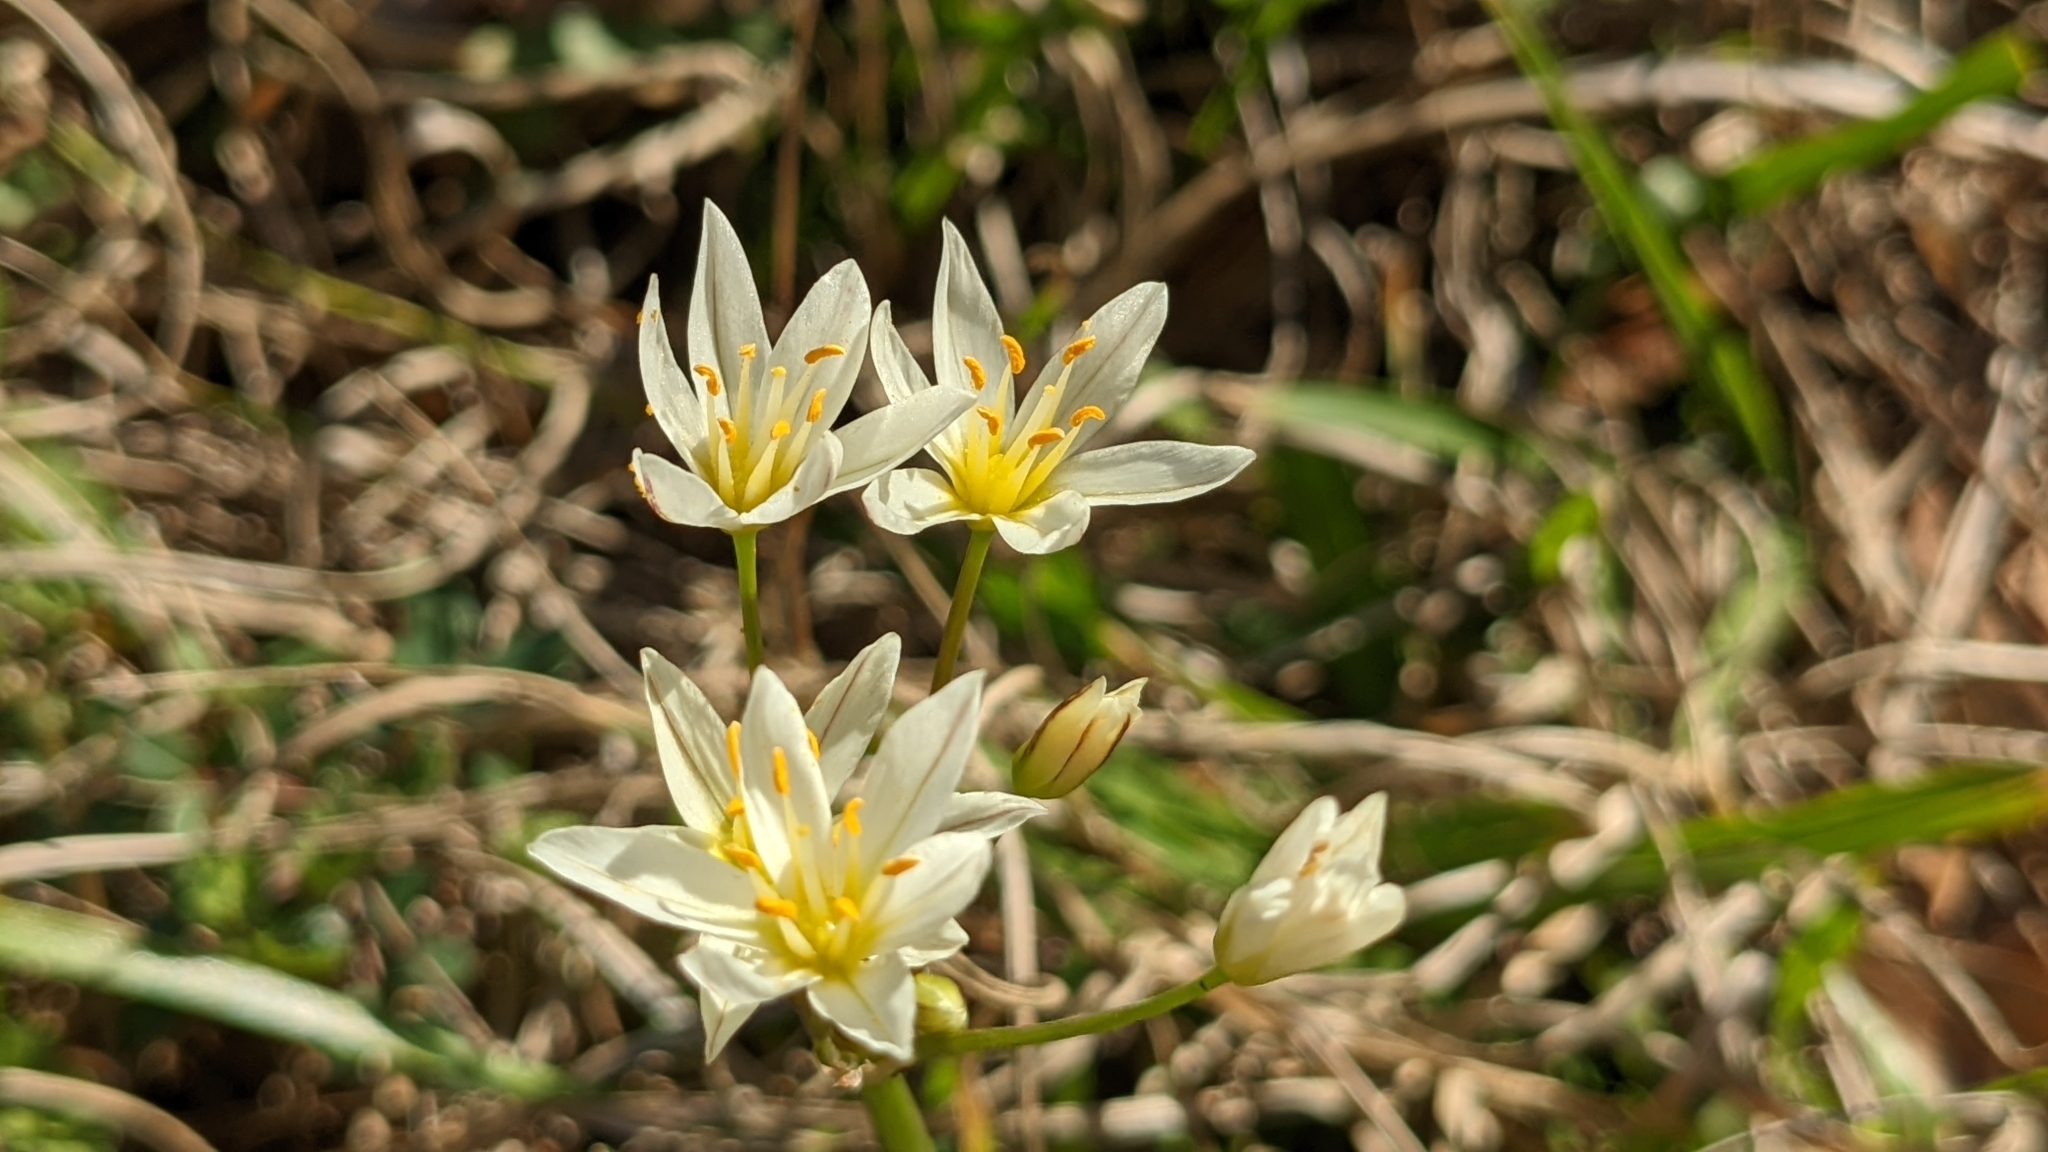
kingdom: Plantae
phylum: Tracheophyta
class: Liliopsida
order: Asparagales
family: Amaryllidaceae
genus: Nothoscordum
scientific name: Nothoscordum bivalve
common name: Crow-poison
